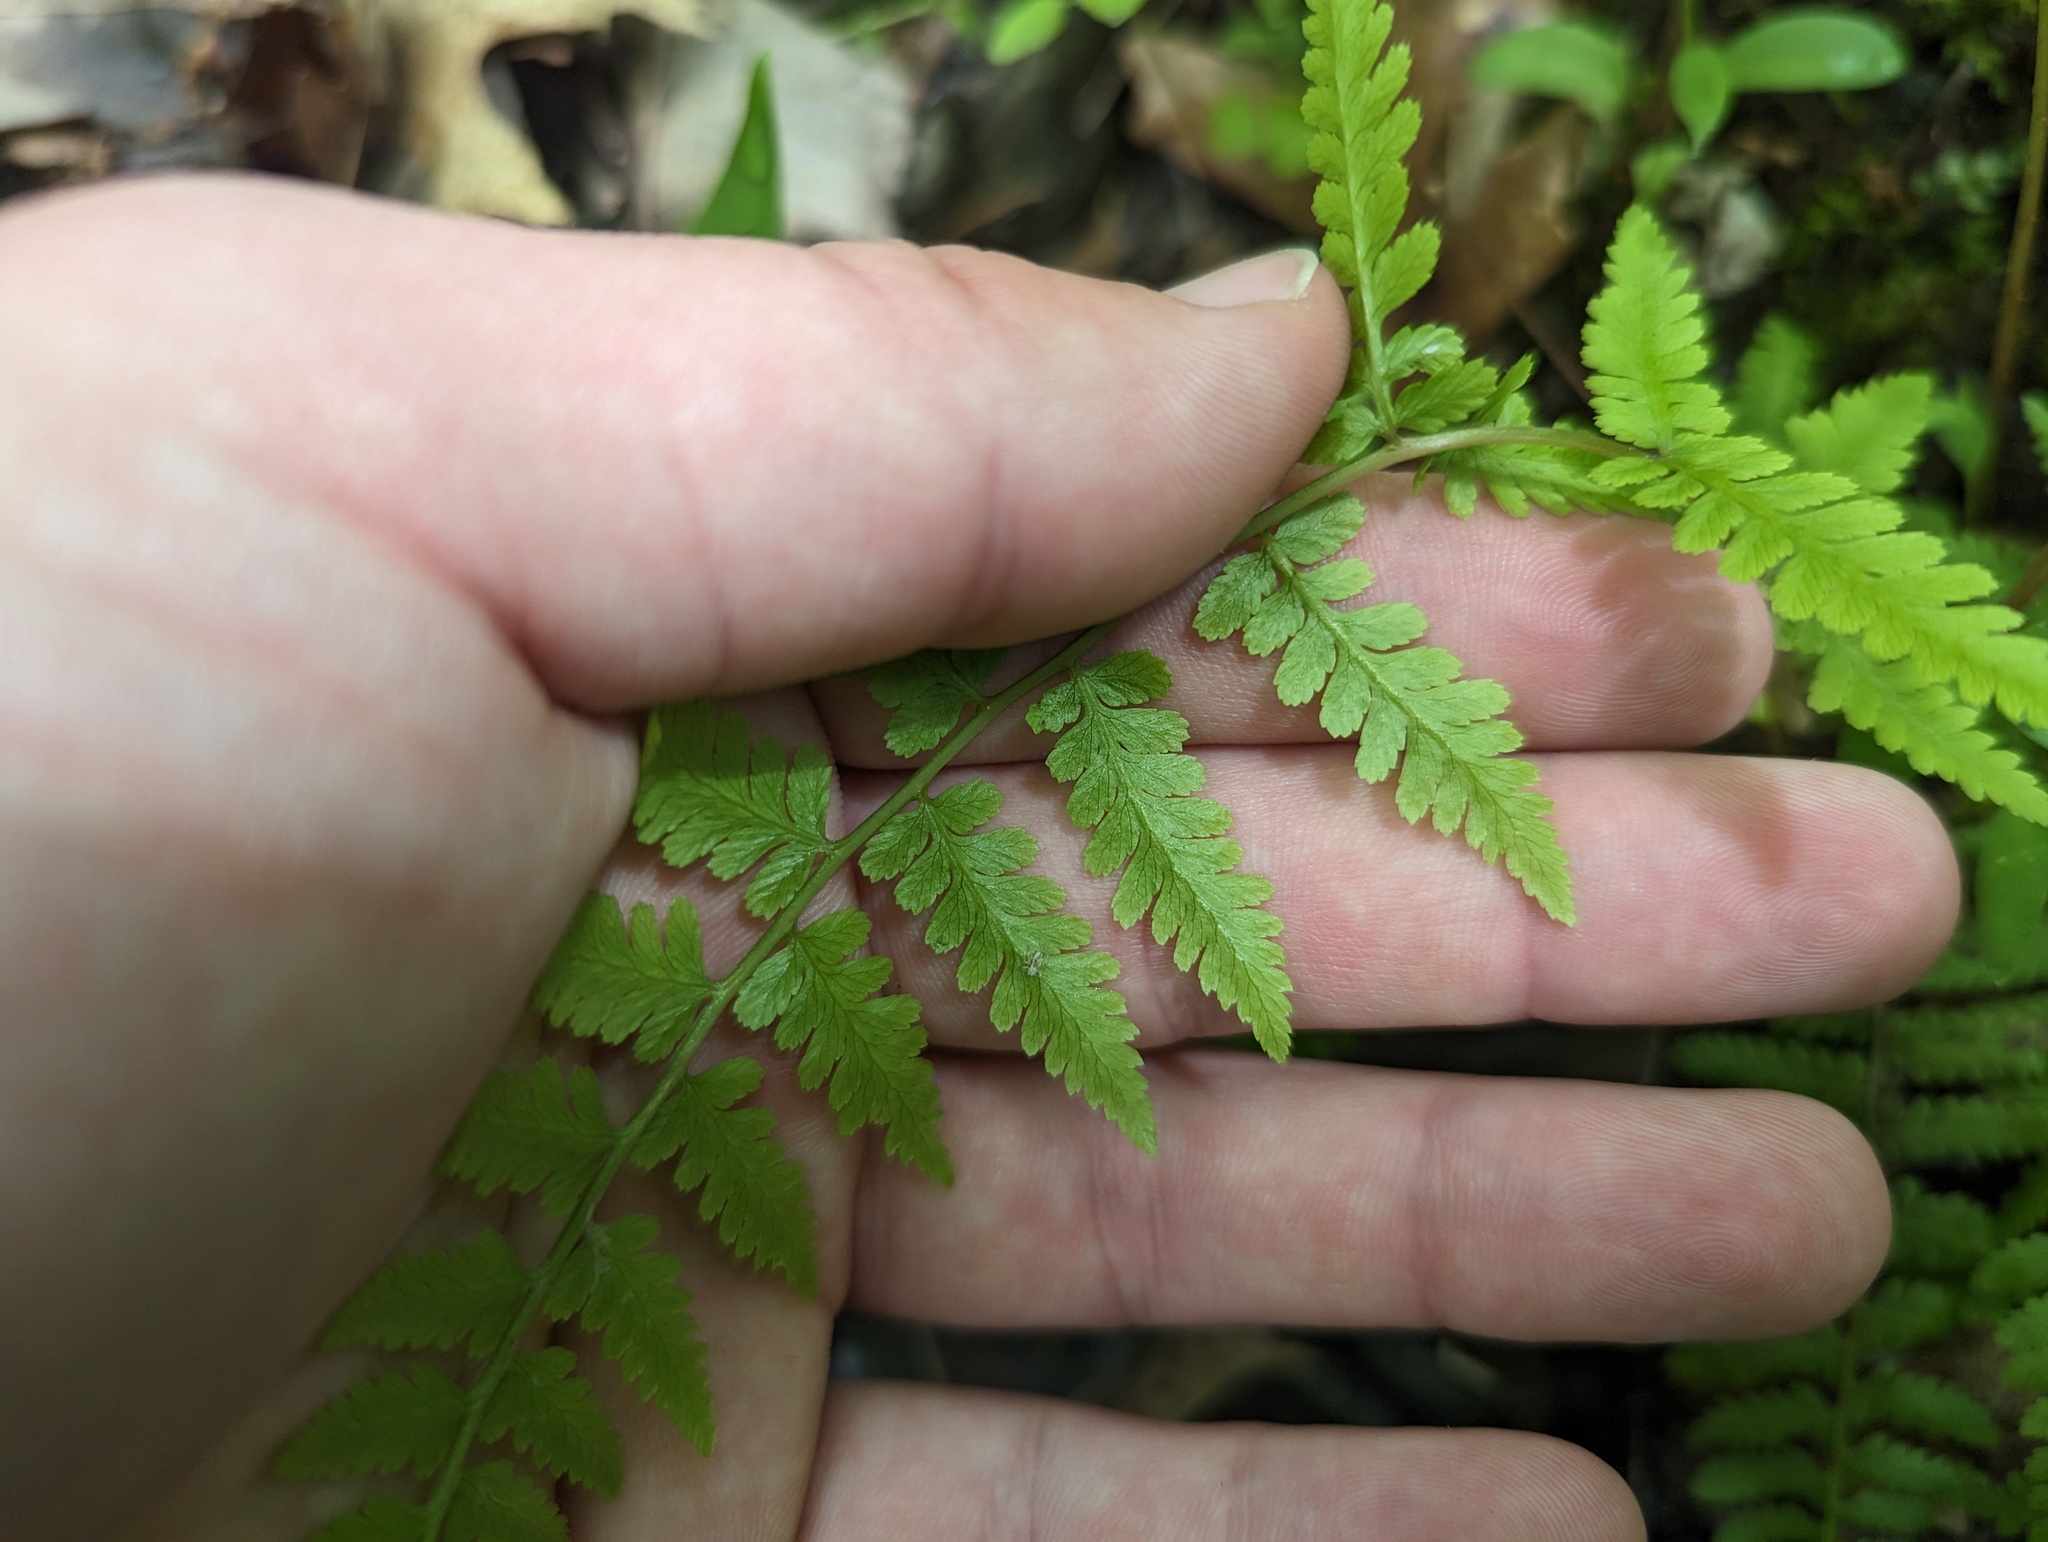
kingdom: Plantae
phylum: Tracheophyta
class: Polypodiopsida
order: Polypodiales
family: Athyriaceae
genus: Athyrium
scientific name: Athyrium asplenioides
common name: Southern lady fern
